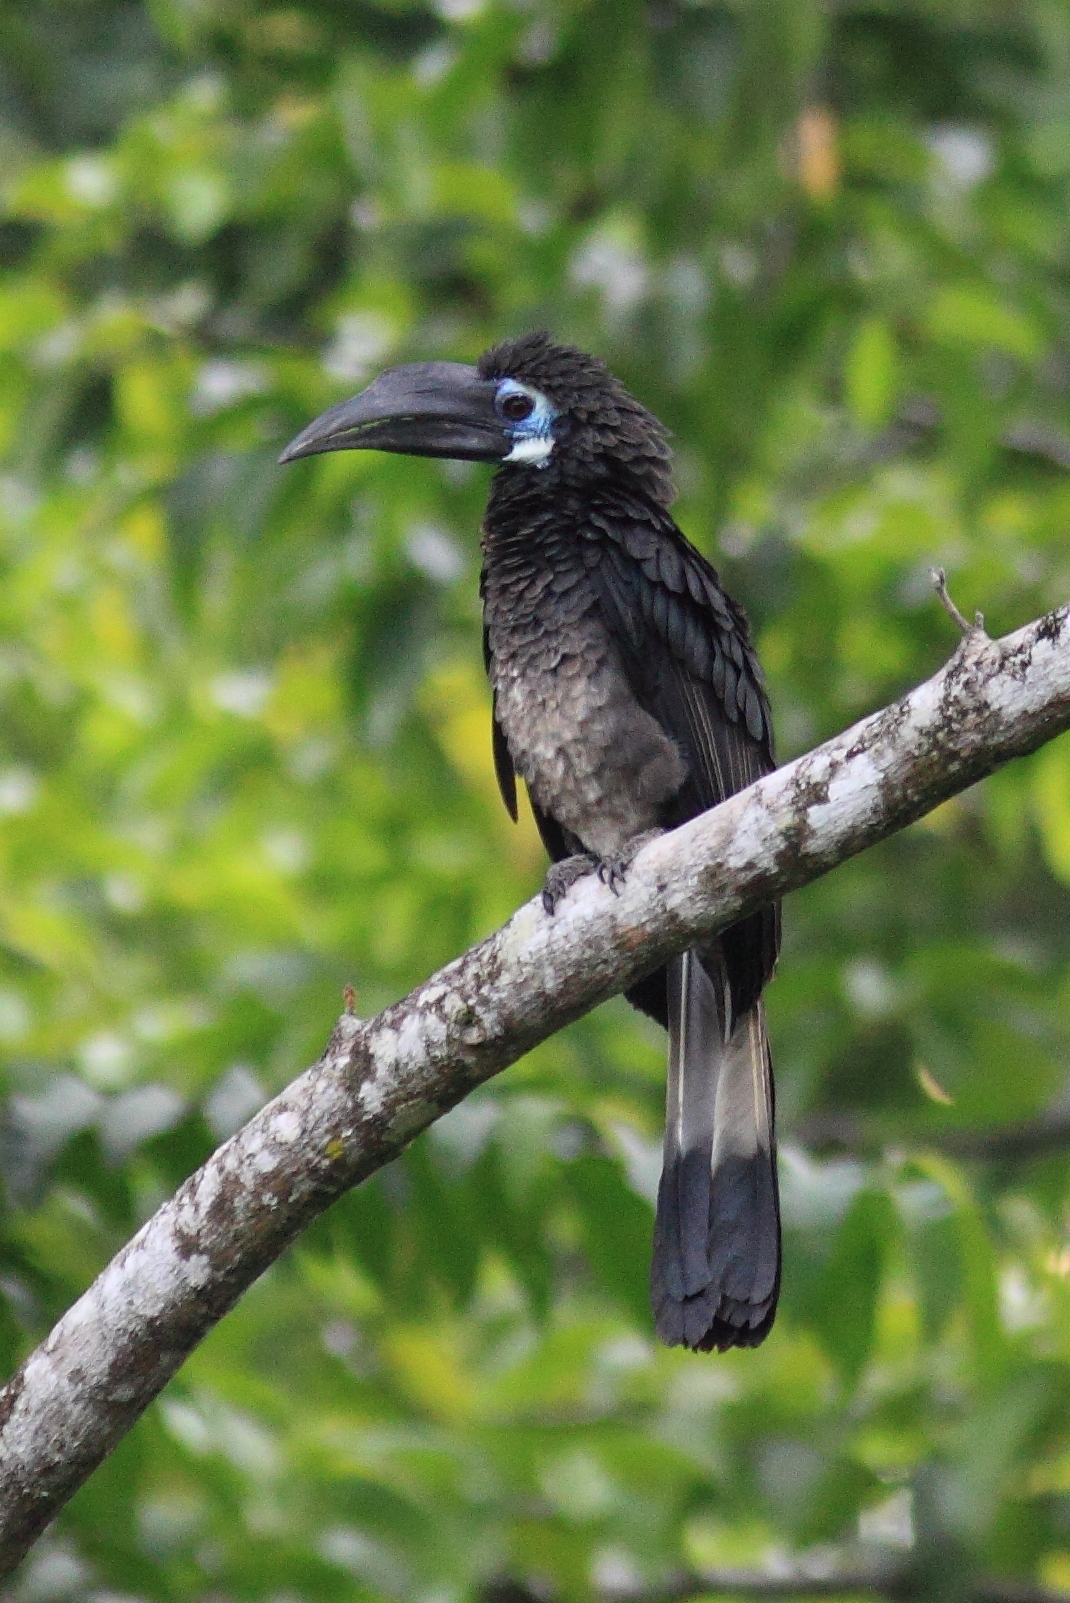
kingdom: Animalia
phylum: Chordata
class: Aves
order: Bucerotiformes
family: Bucerotidae
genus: Anorrhinus
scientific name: Anorrhinus galeritus
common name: Bushy-crested hornbill
